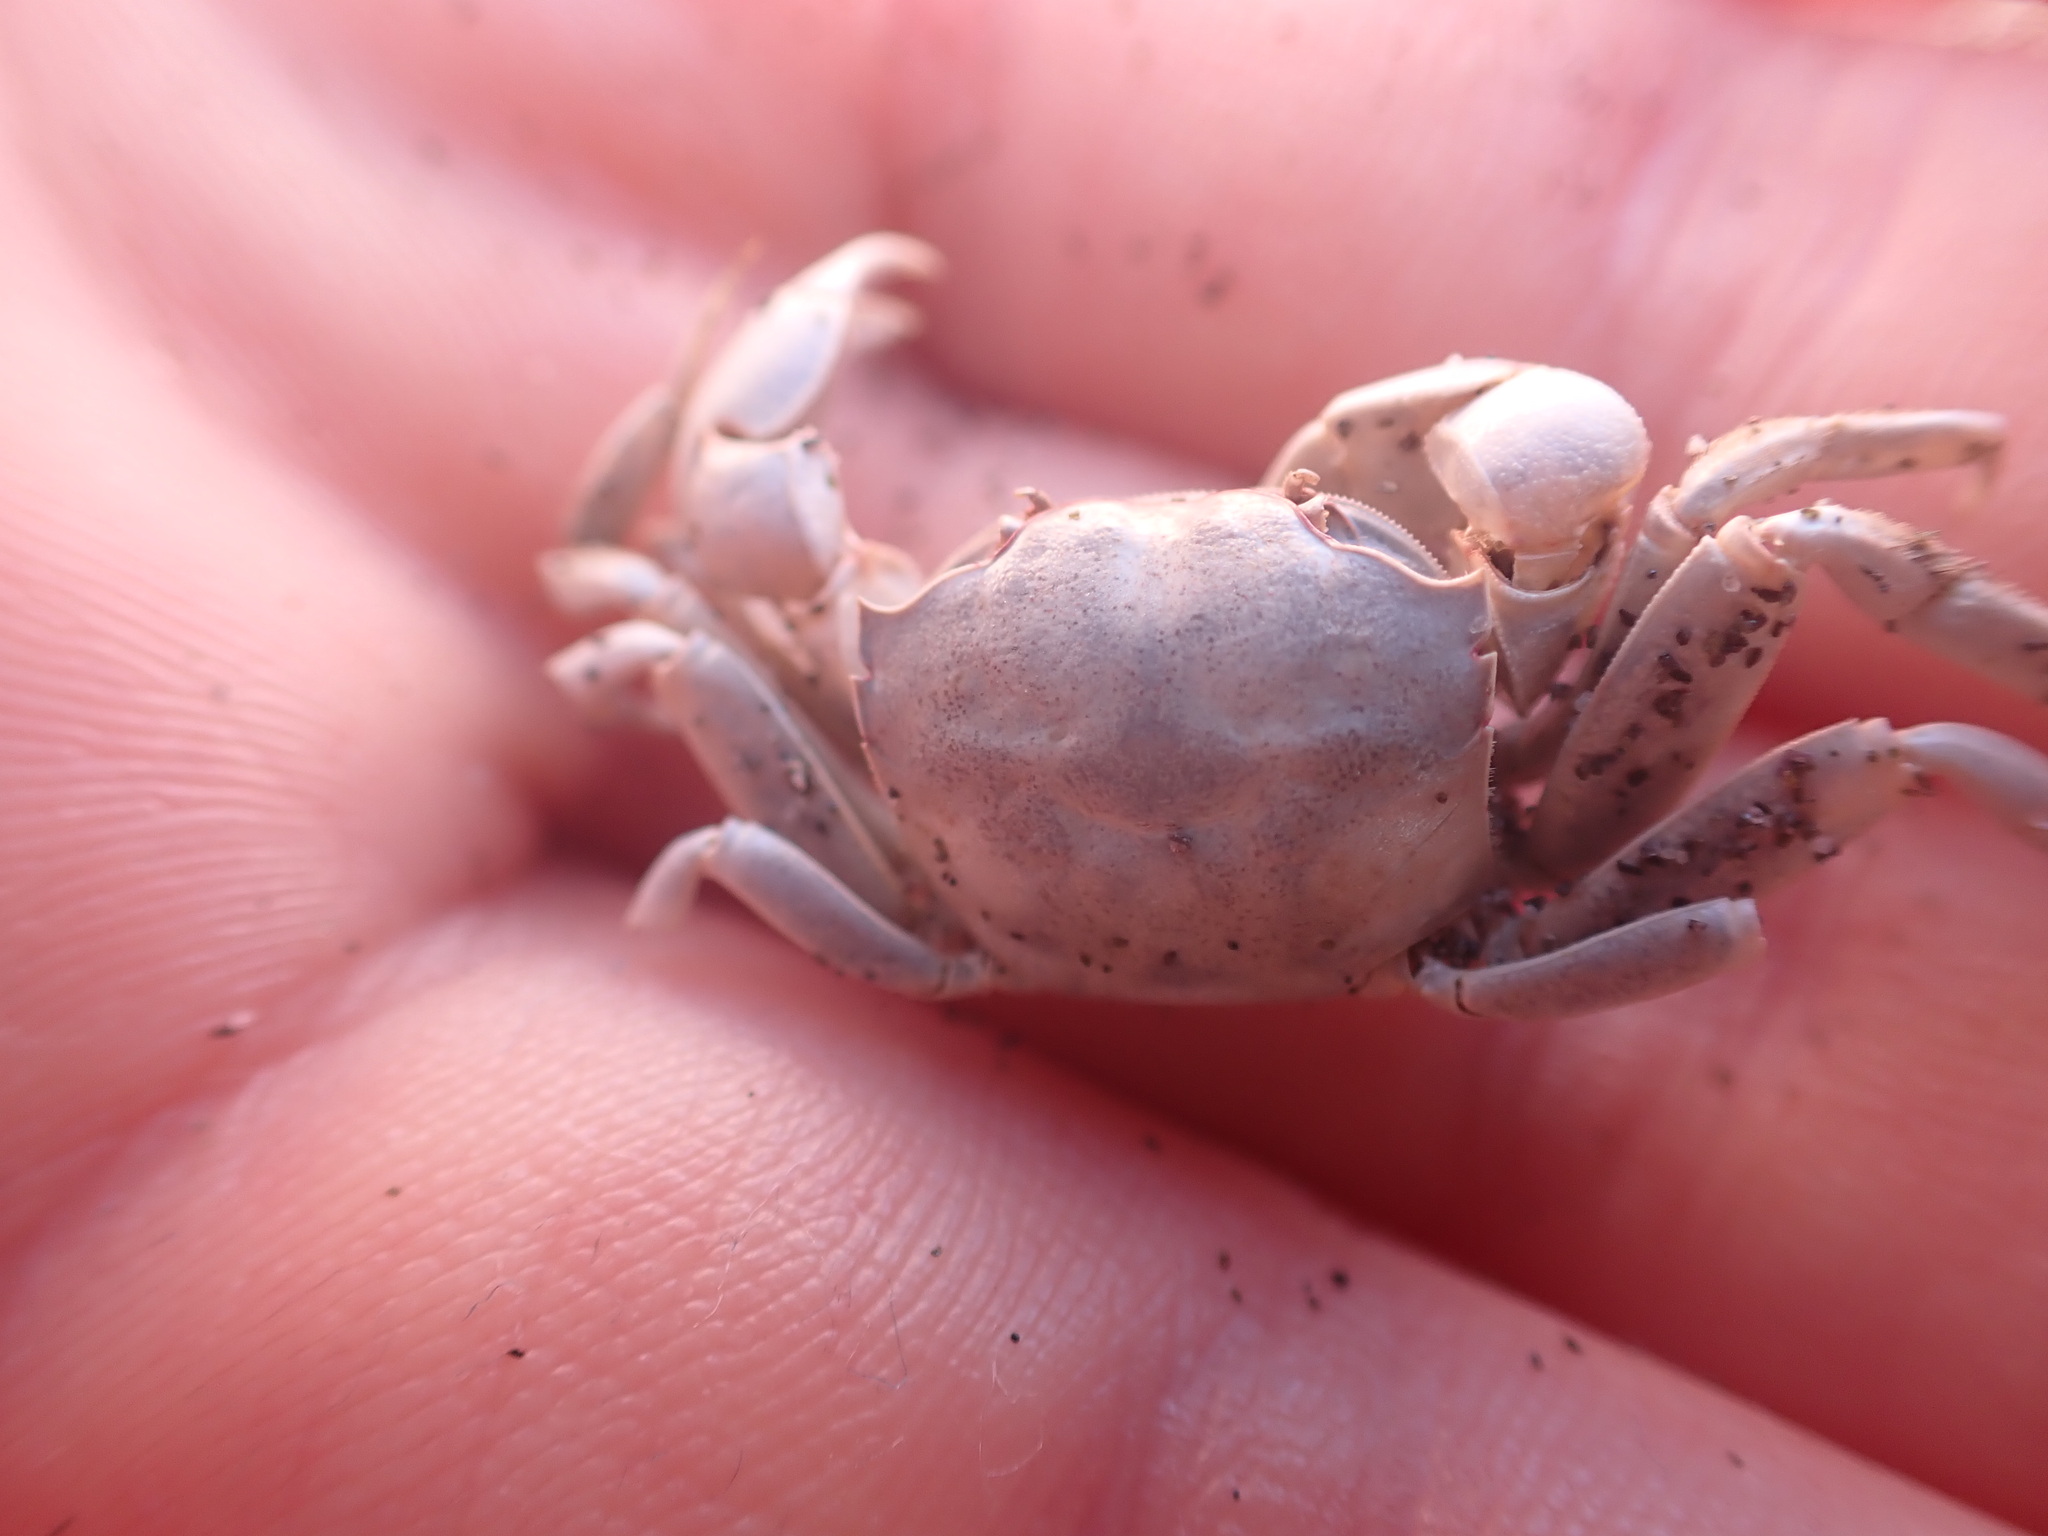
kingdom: Animalia
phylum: Arthropoda
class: Malacostraca
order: Decapoda
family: Varunidae
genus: Austrohelice
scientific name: Austrohelice crassa
